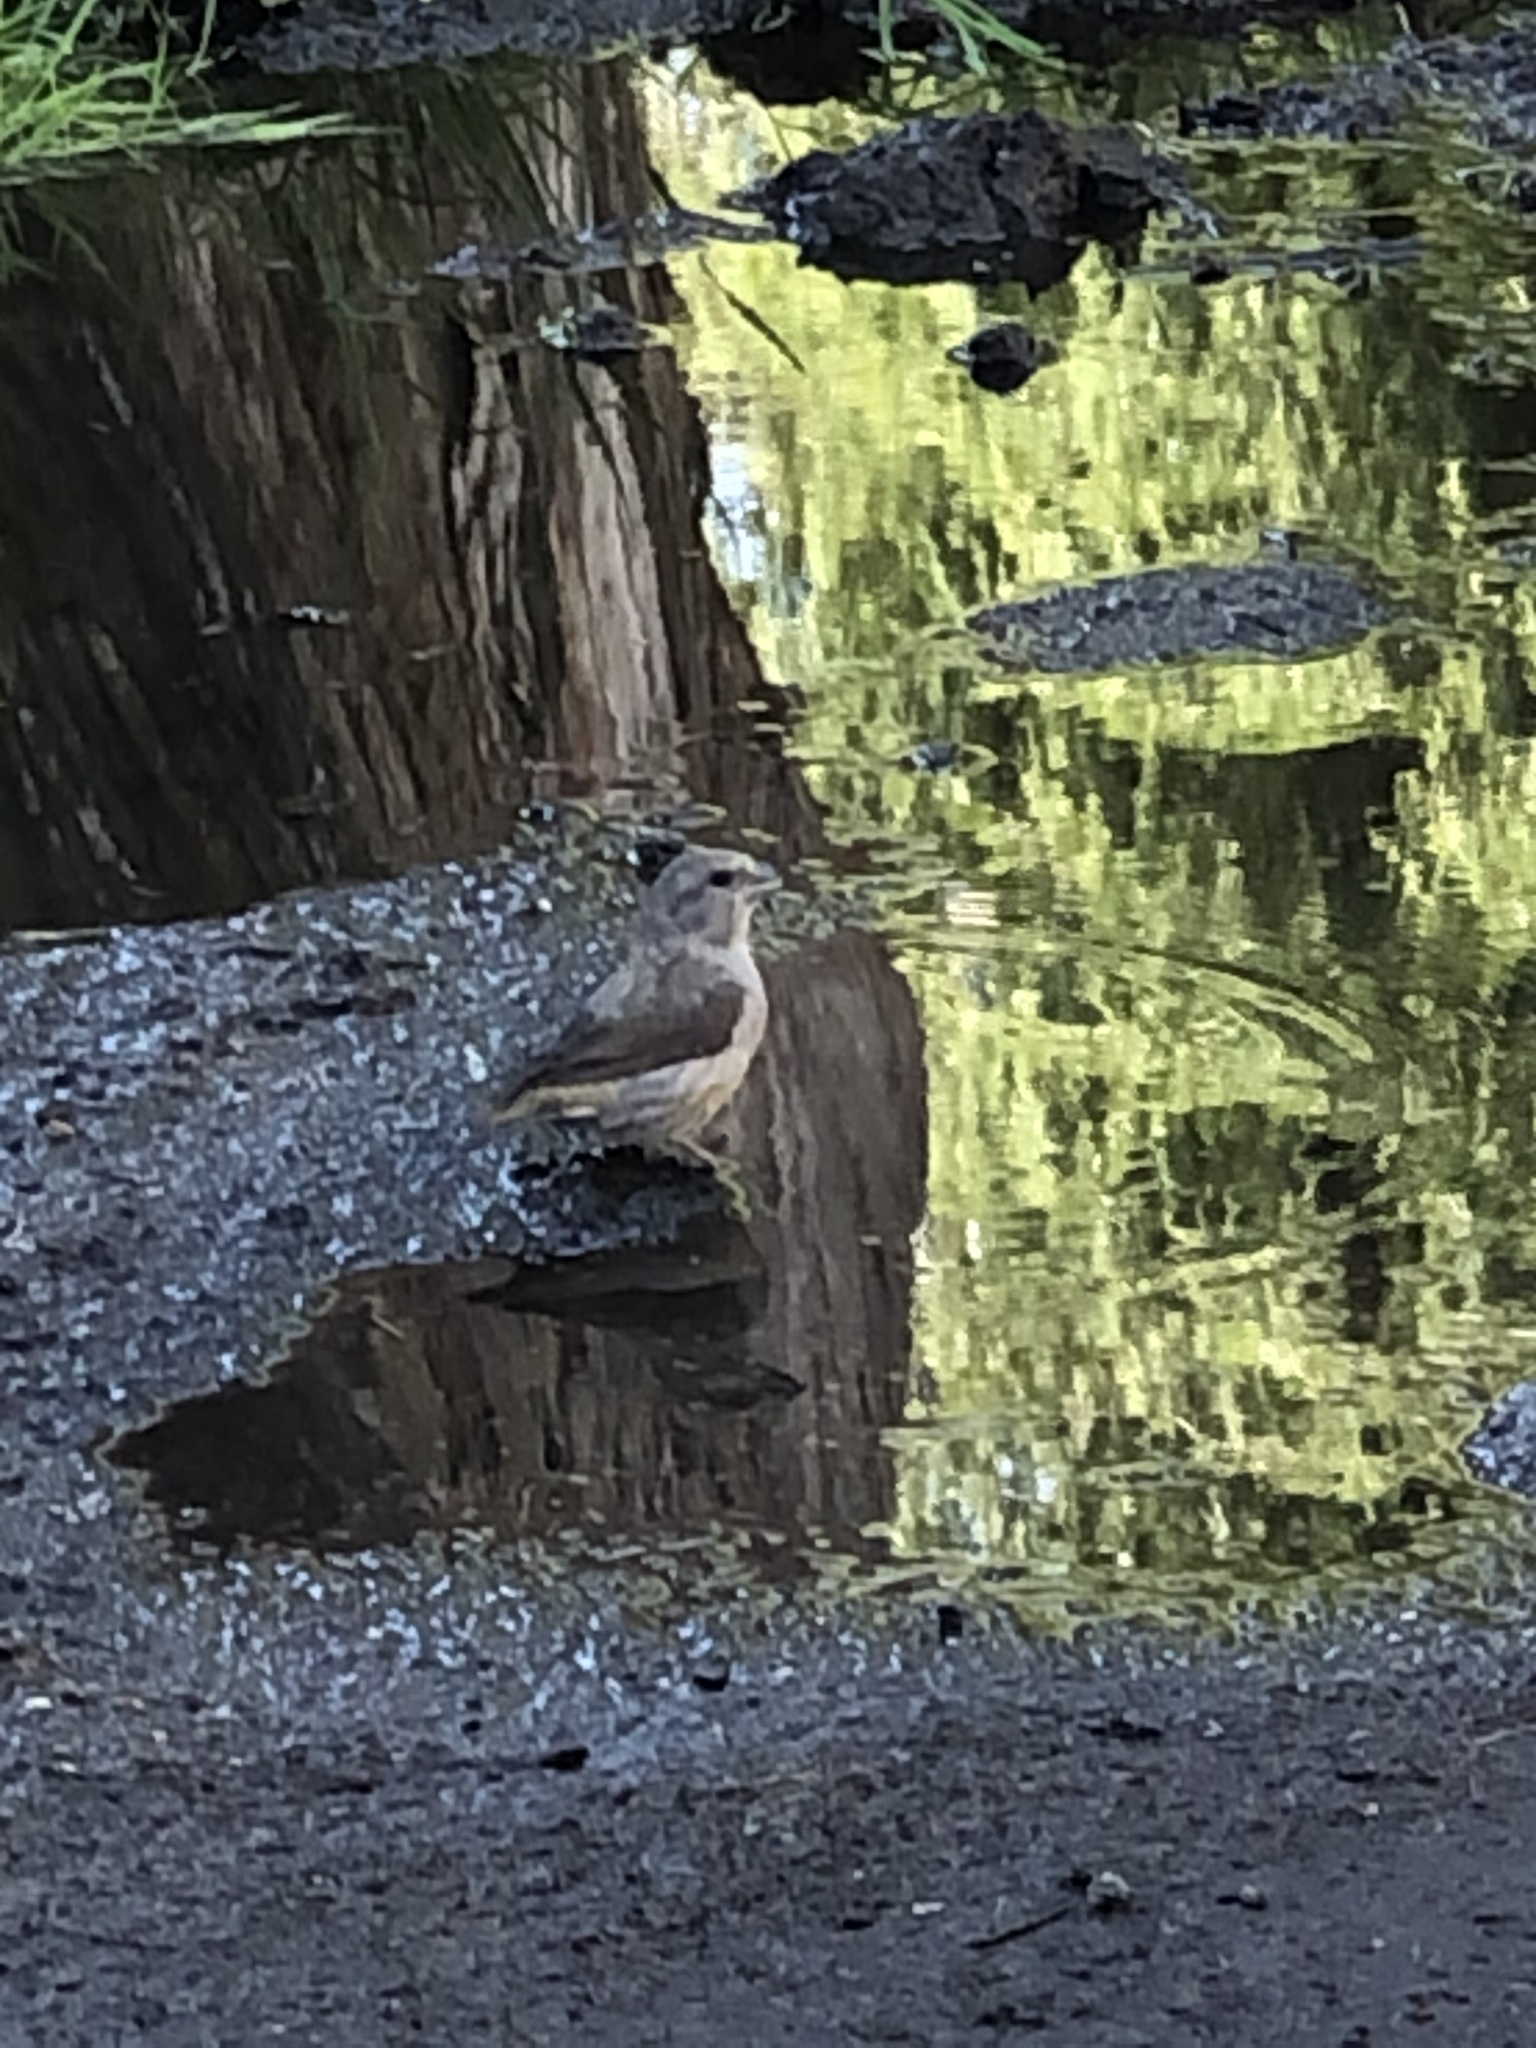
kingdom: Animalia
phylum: Chordata
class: Aves
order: Passeriformes
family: Fringillidae
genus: Loxia
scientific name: Loxia curvirostra
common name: Red crossbill
